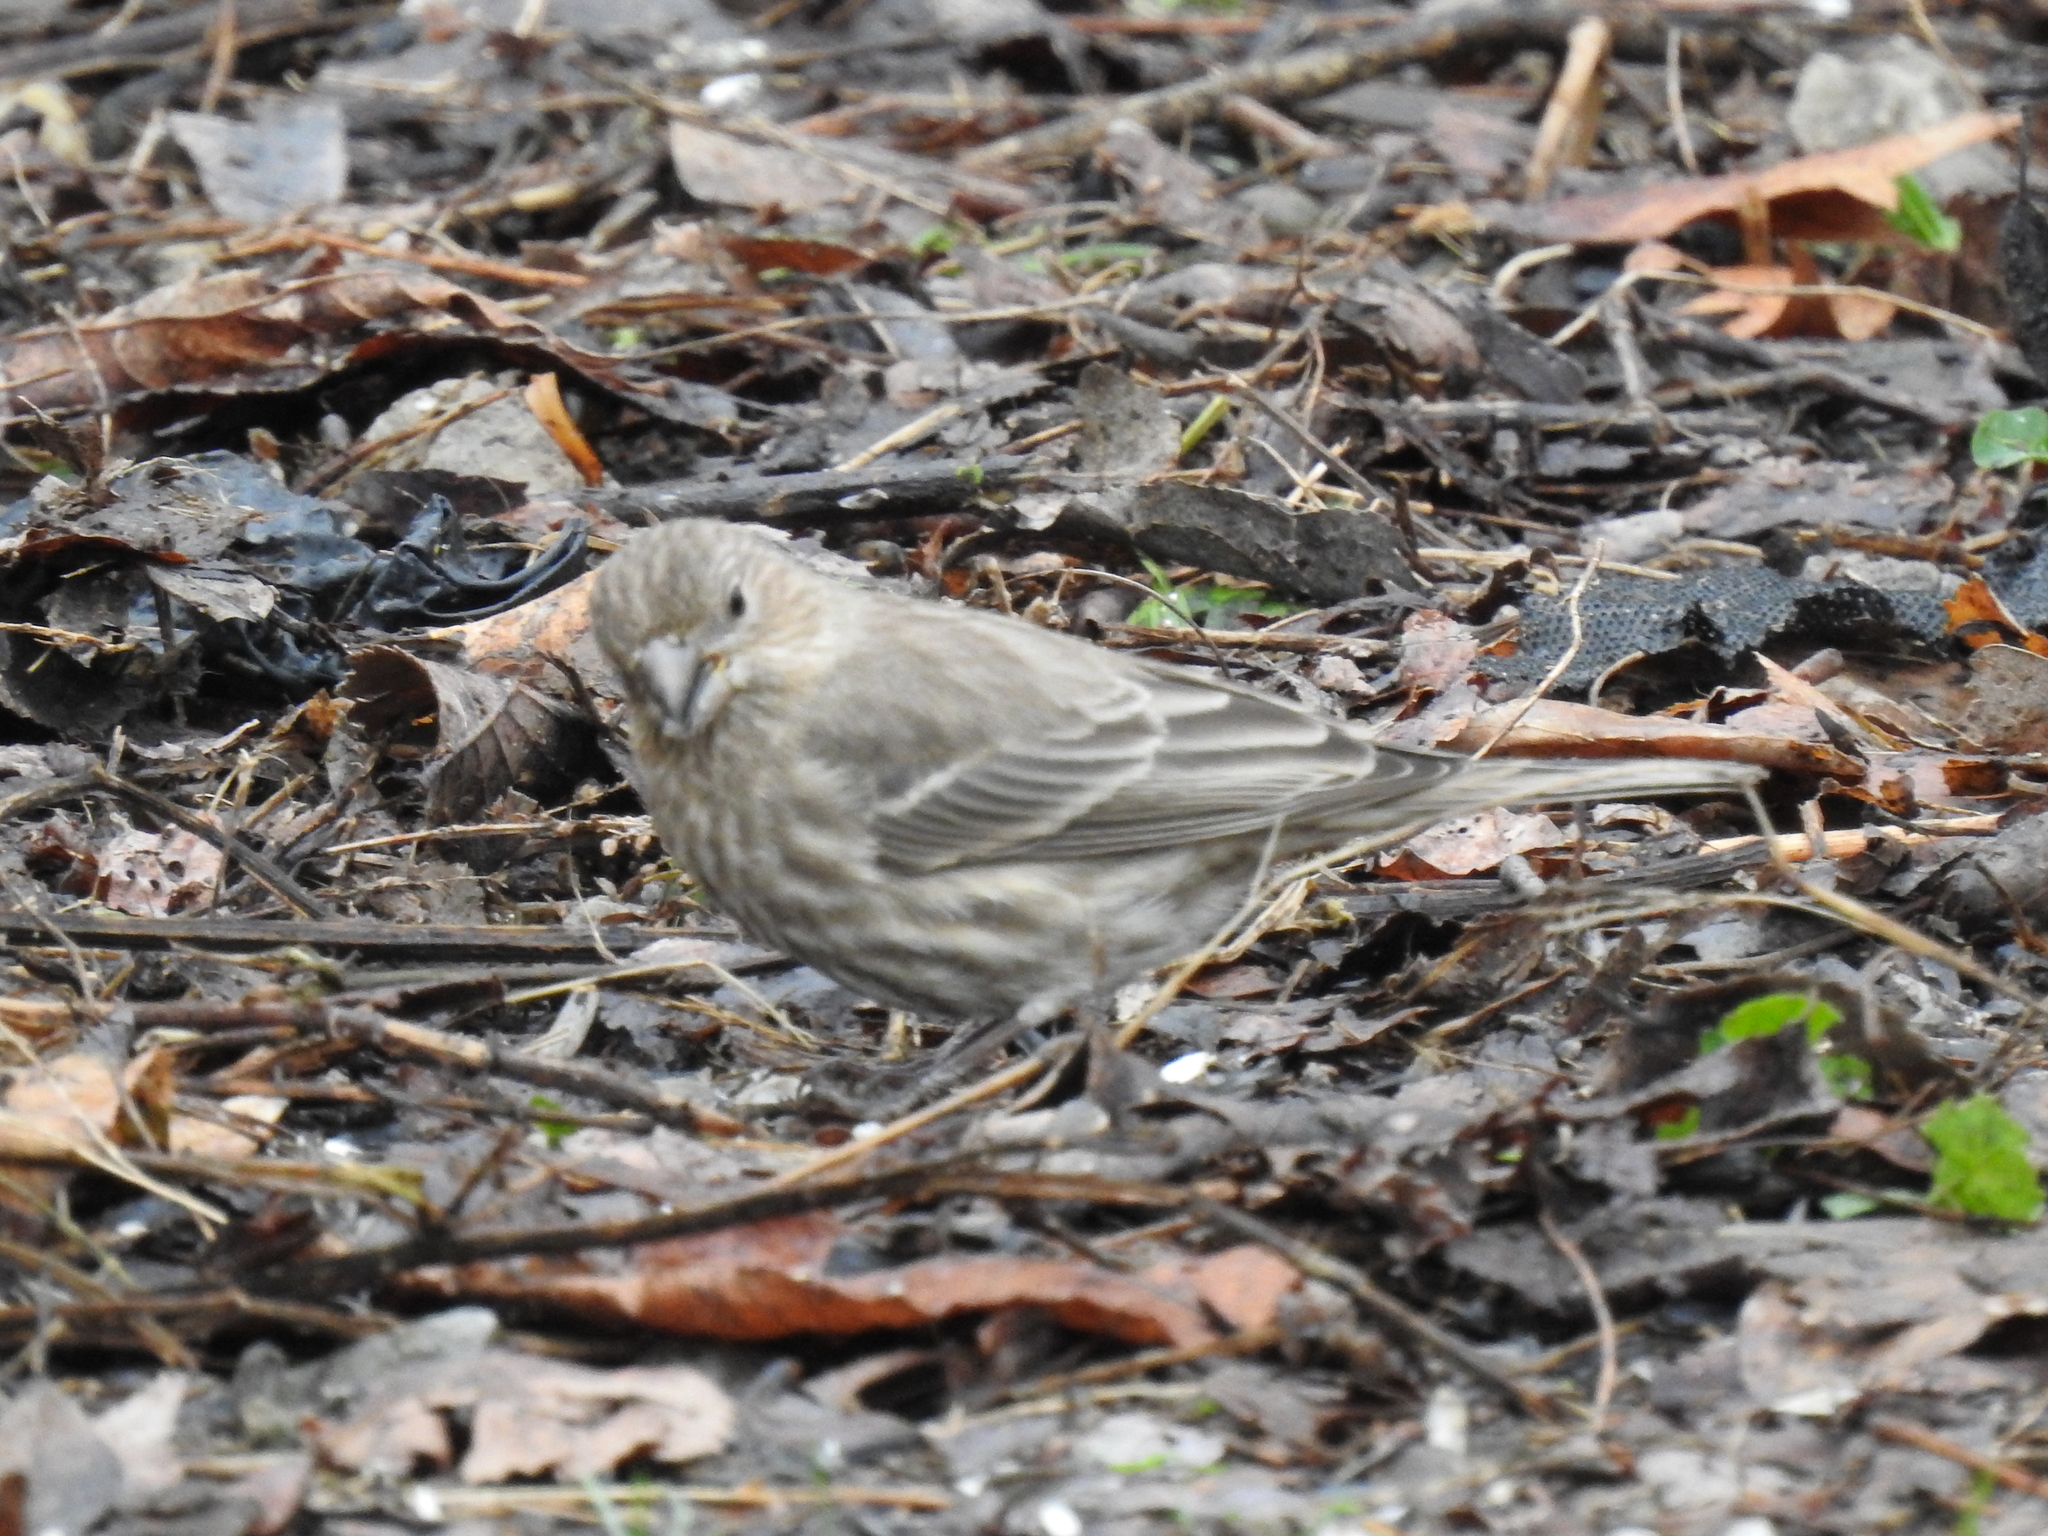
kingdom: Animalia
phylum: Chordata
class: Aves
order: Passeriformes
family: Fringillidae
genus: Haemorhous
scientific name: Haemorhous mexicanus
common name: House finch
